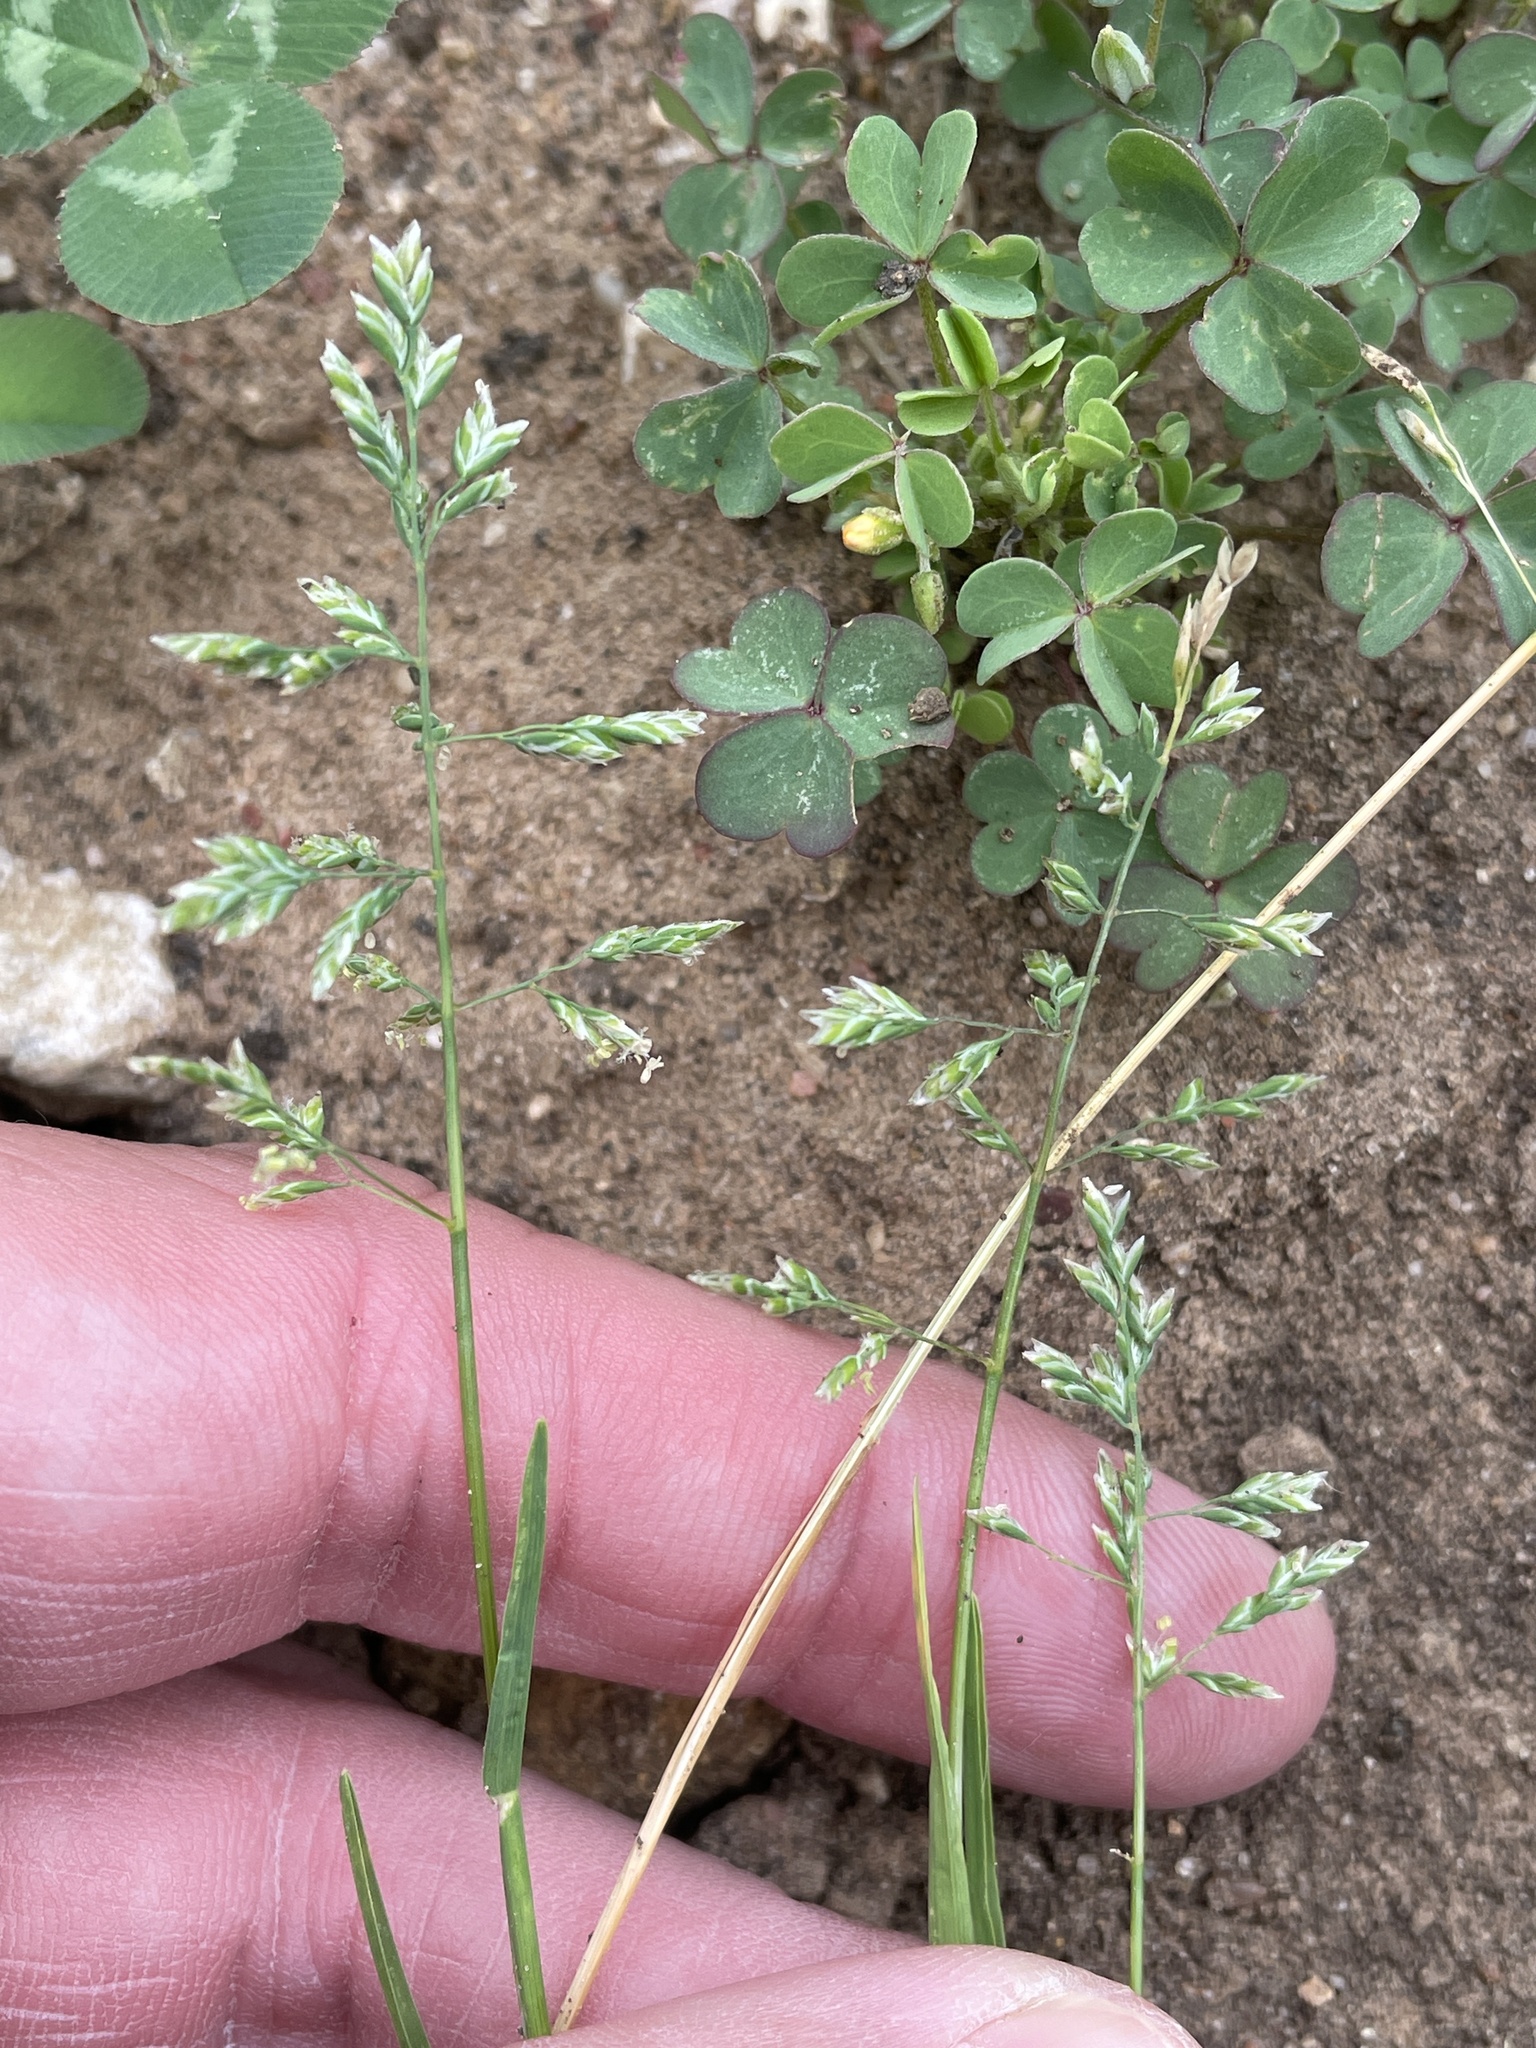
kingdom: Plantae
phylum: Tracheophyta
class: Liliopsida
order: Poales
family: Poaceae
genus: Poa
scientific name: Poa annua
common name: Annual bluegrass
